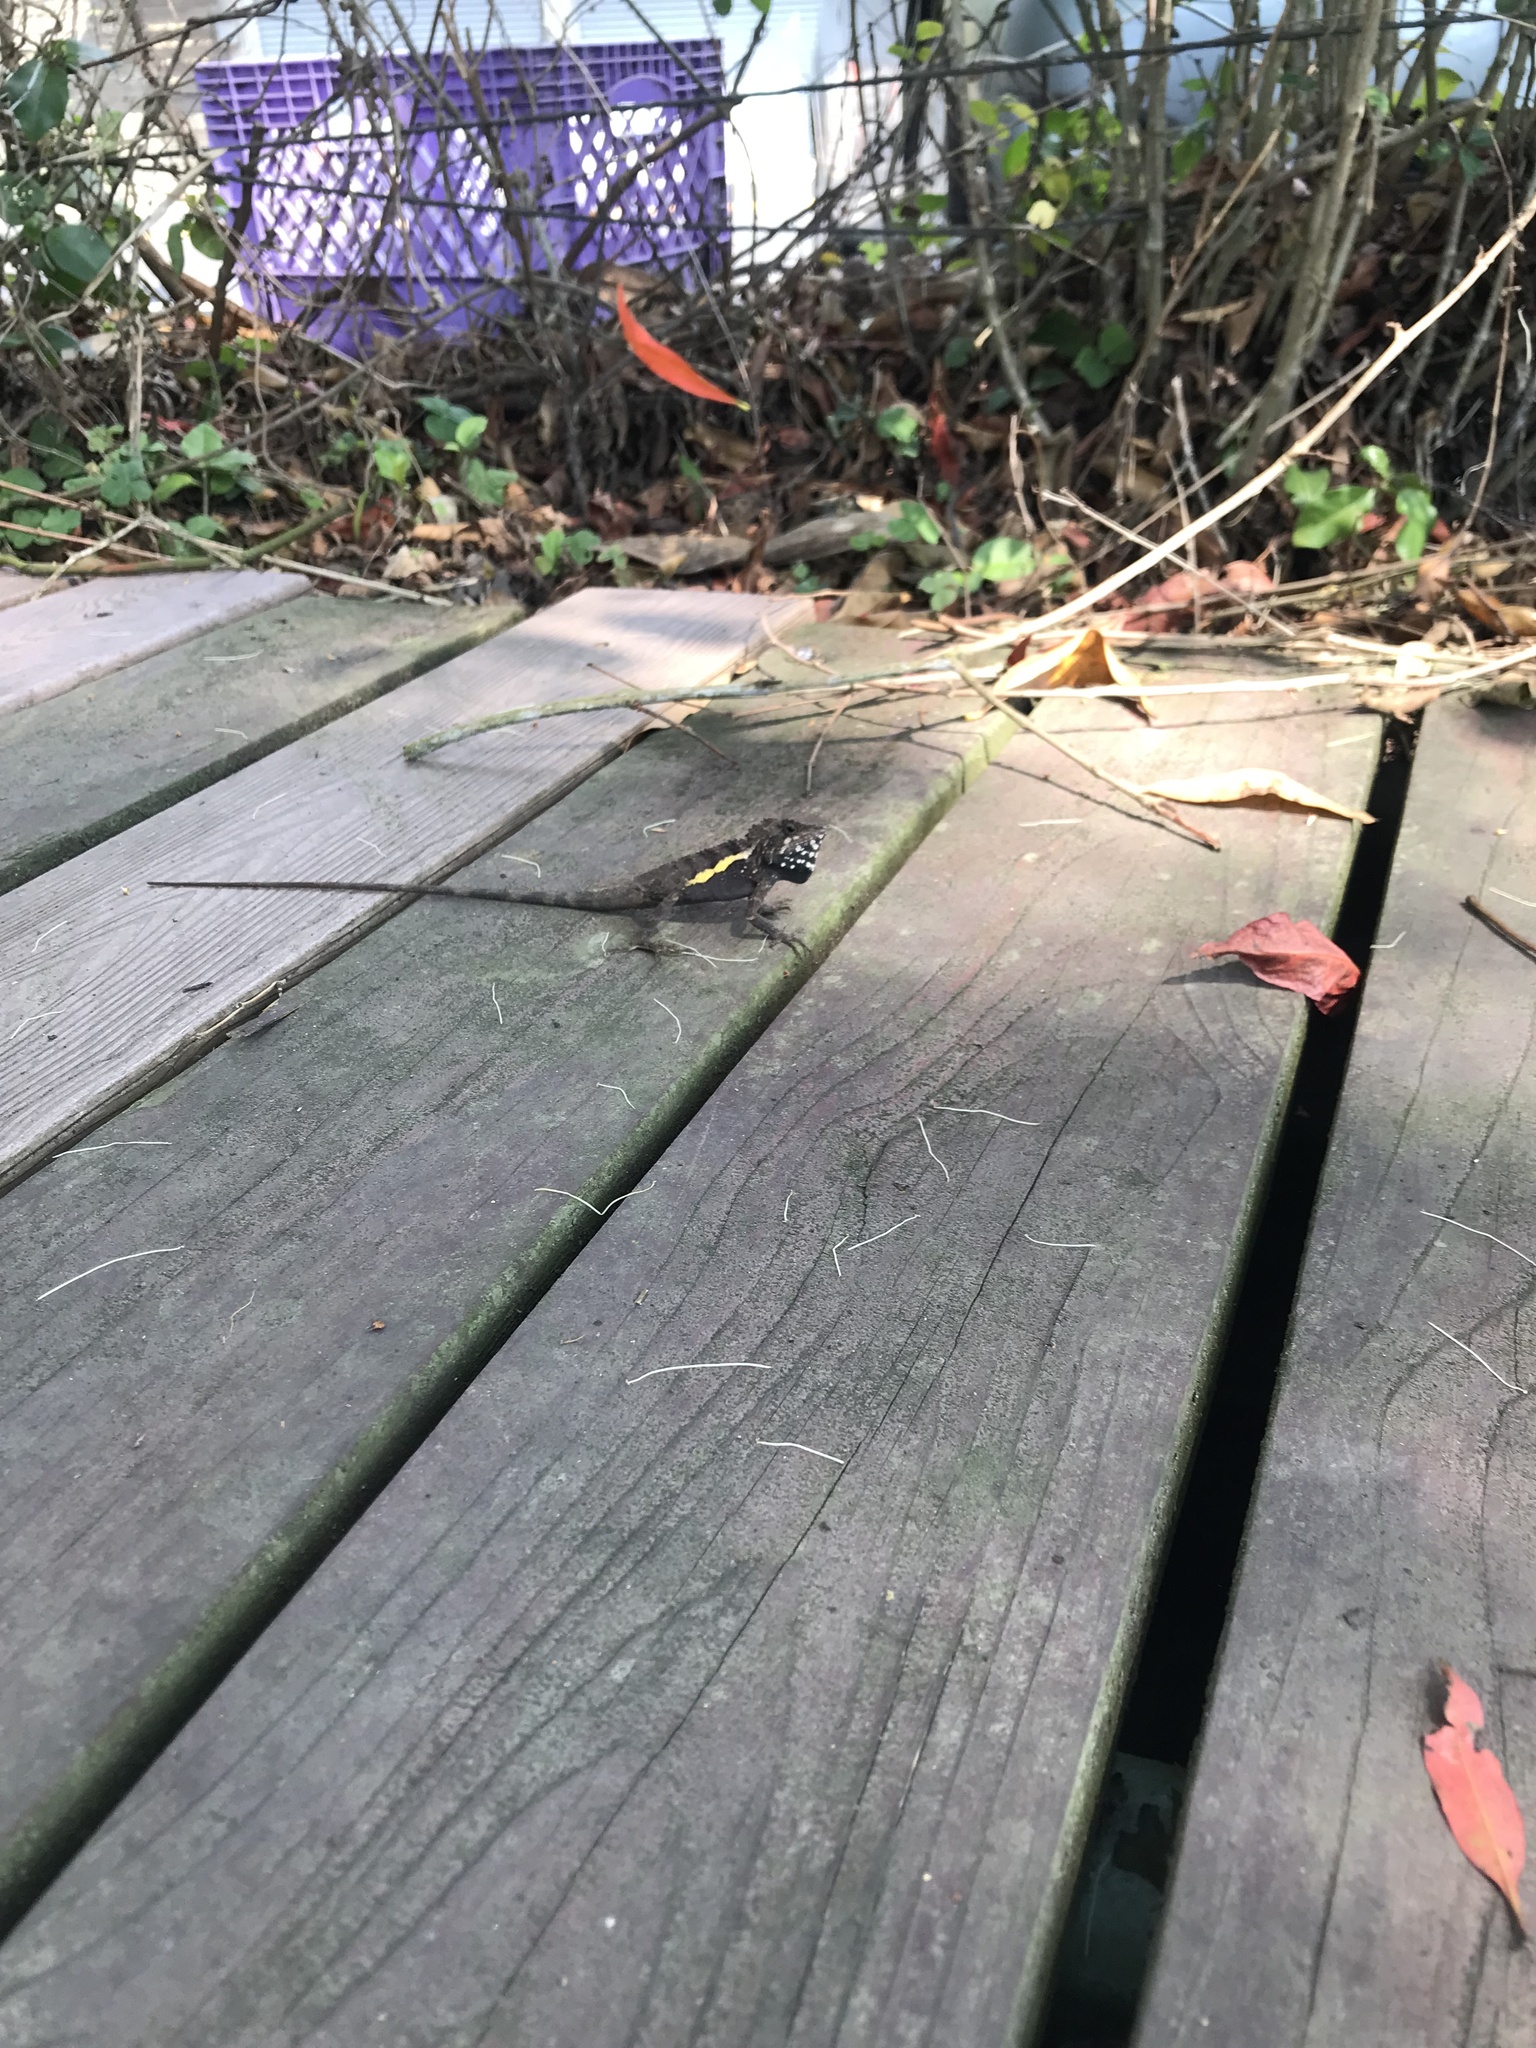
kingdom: Animalia
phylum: Chordata
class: Squamata
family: Agamidae
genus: Diploderma
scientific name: Diploderma swinhonis
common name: Taiwan japalure
